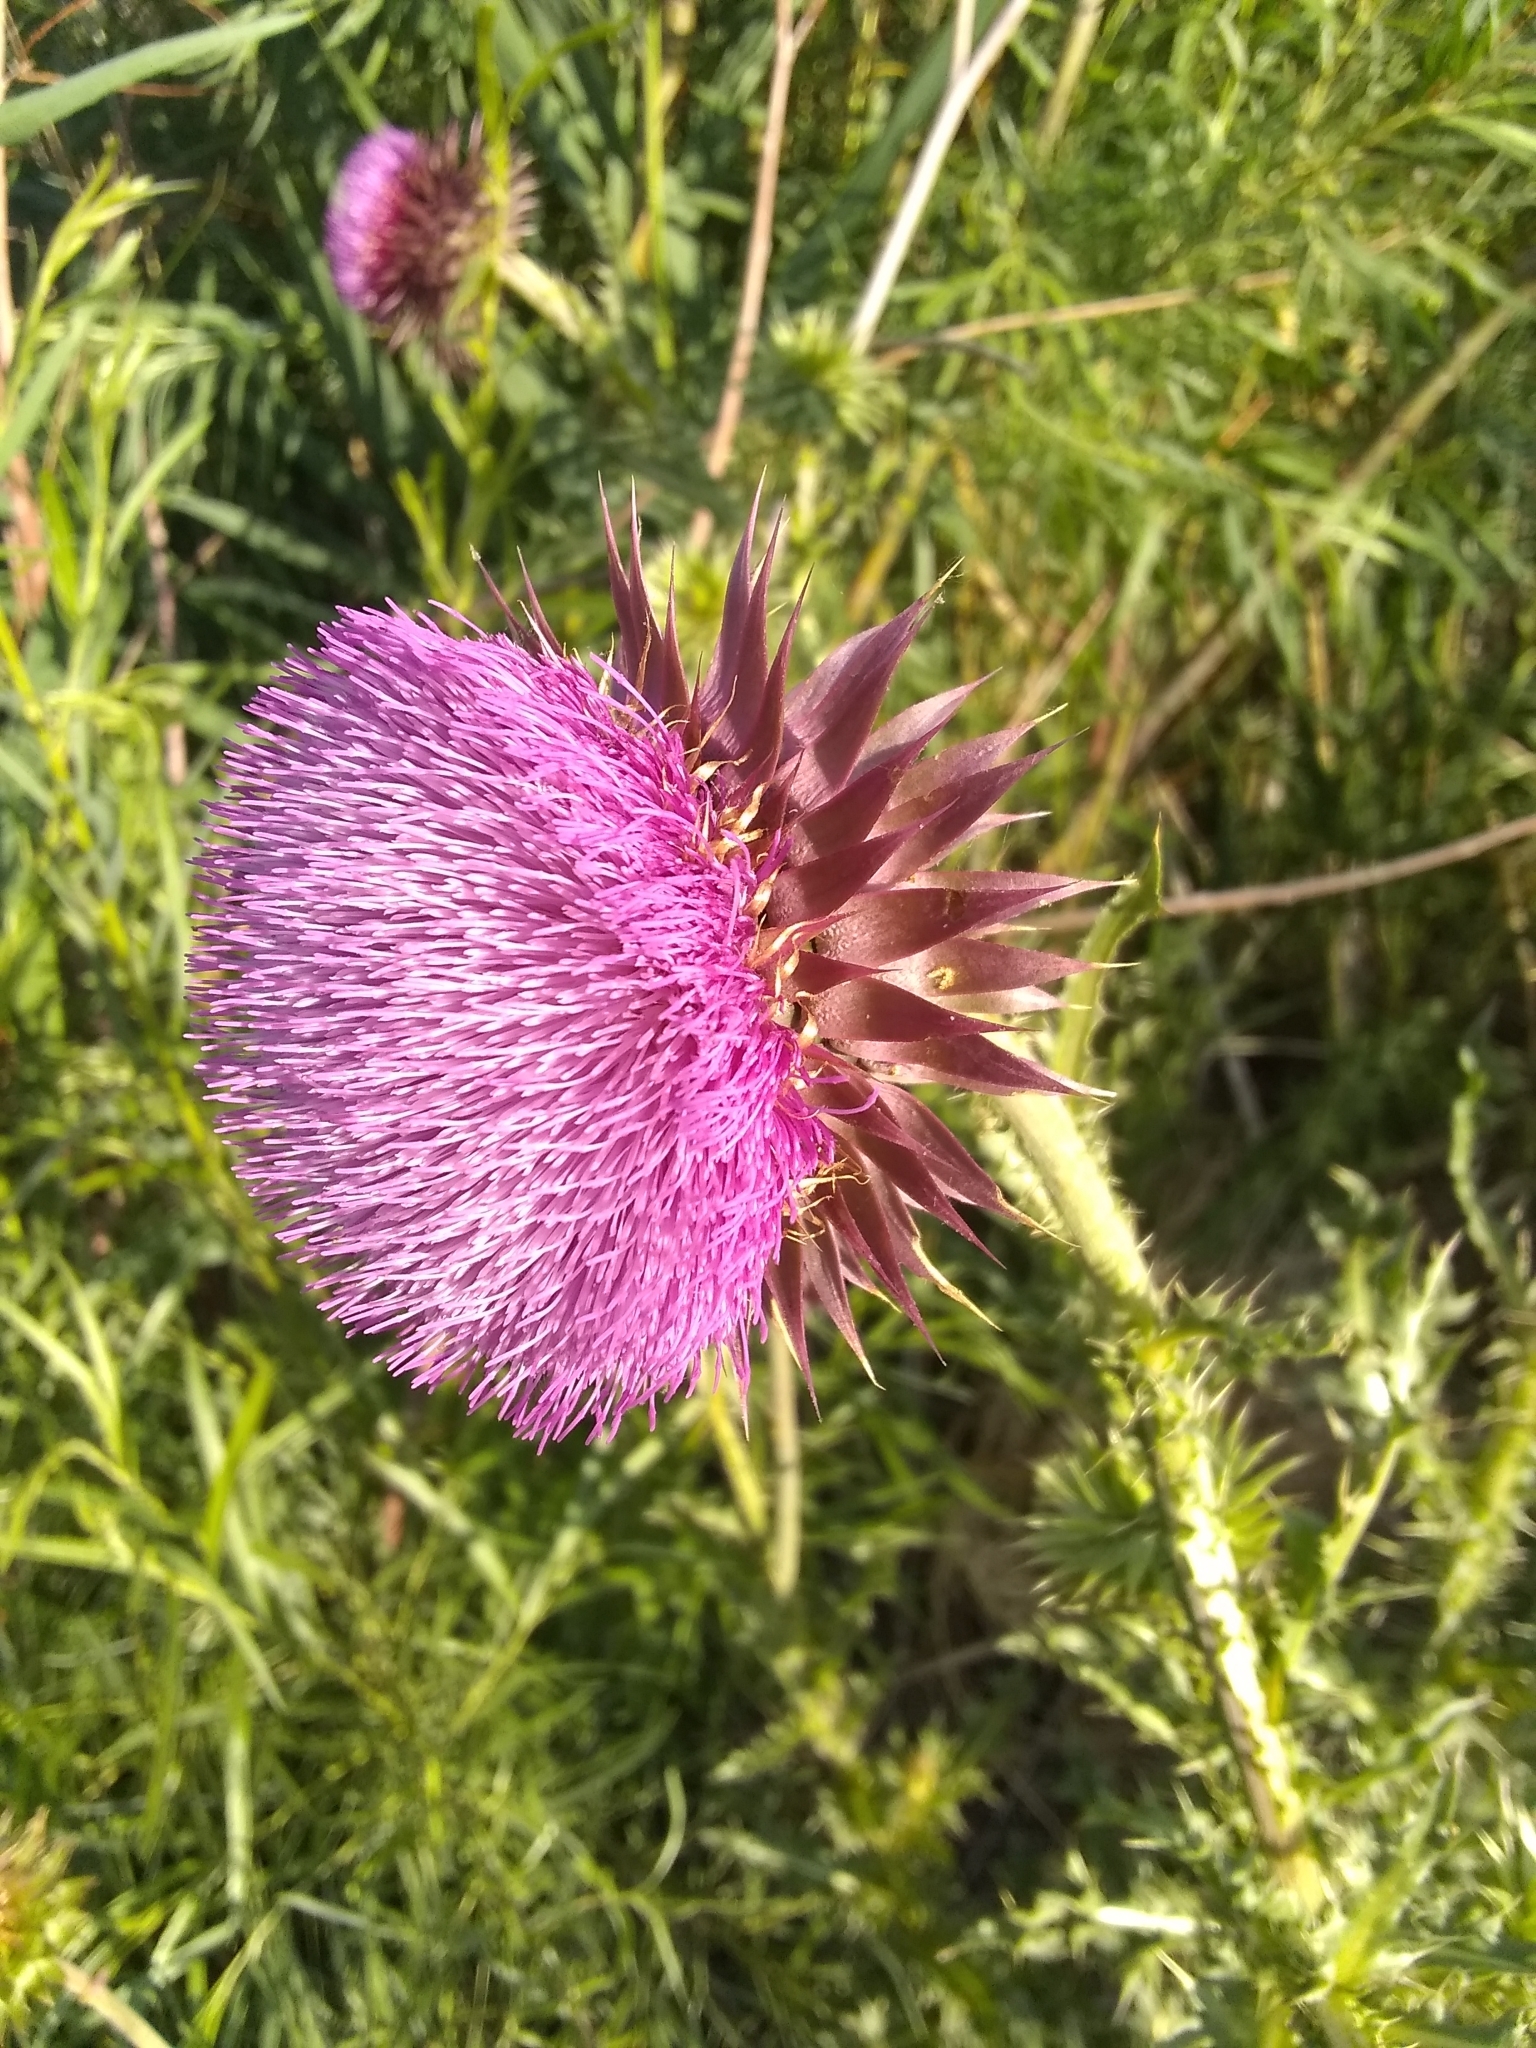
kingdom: Plantae
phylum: Tracheophyta
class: Magnoliopsida
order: Asterales
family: Asteraceae
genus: Carduus
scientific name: Carduus nutans
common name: Musk thistle
